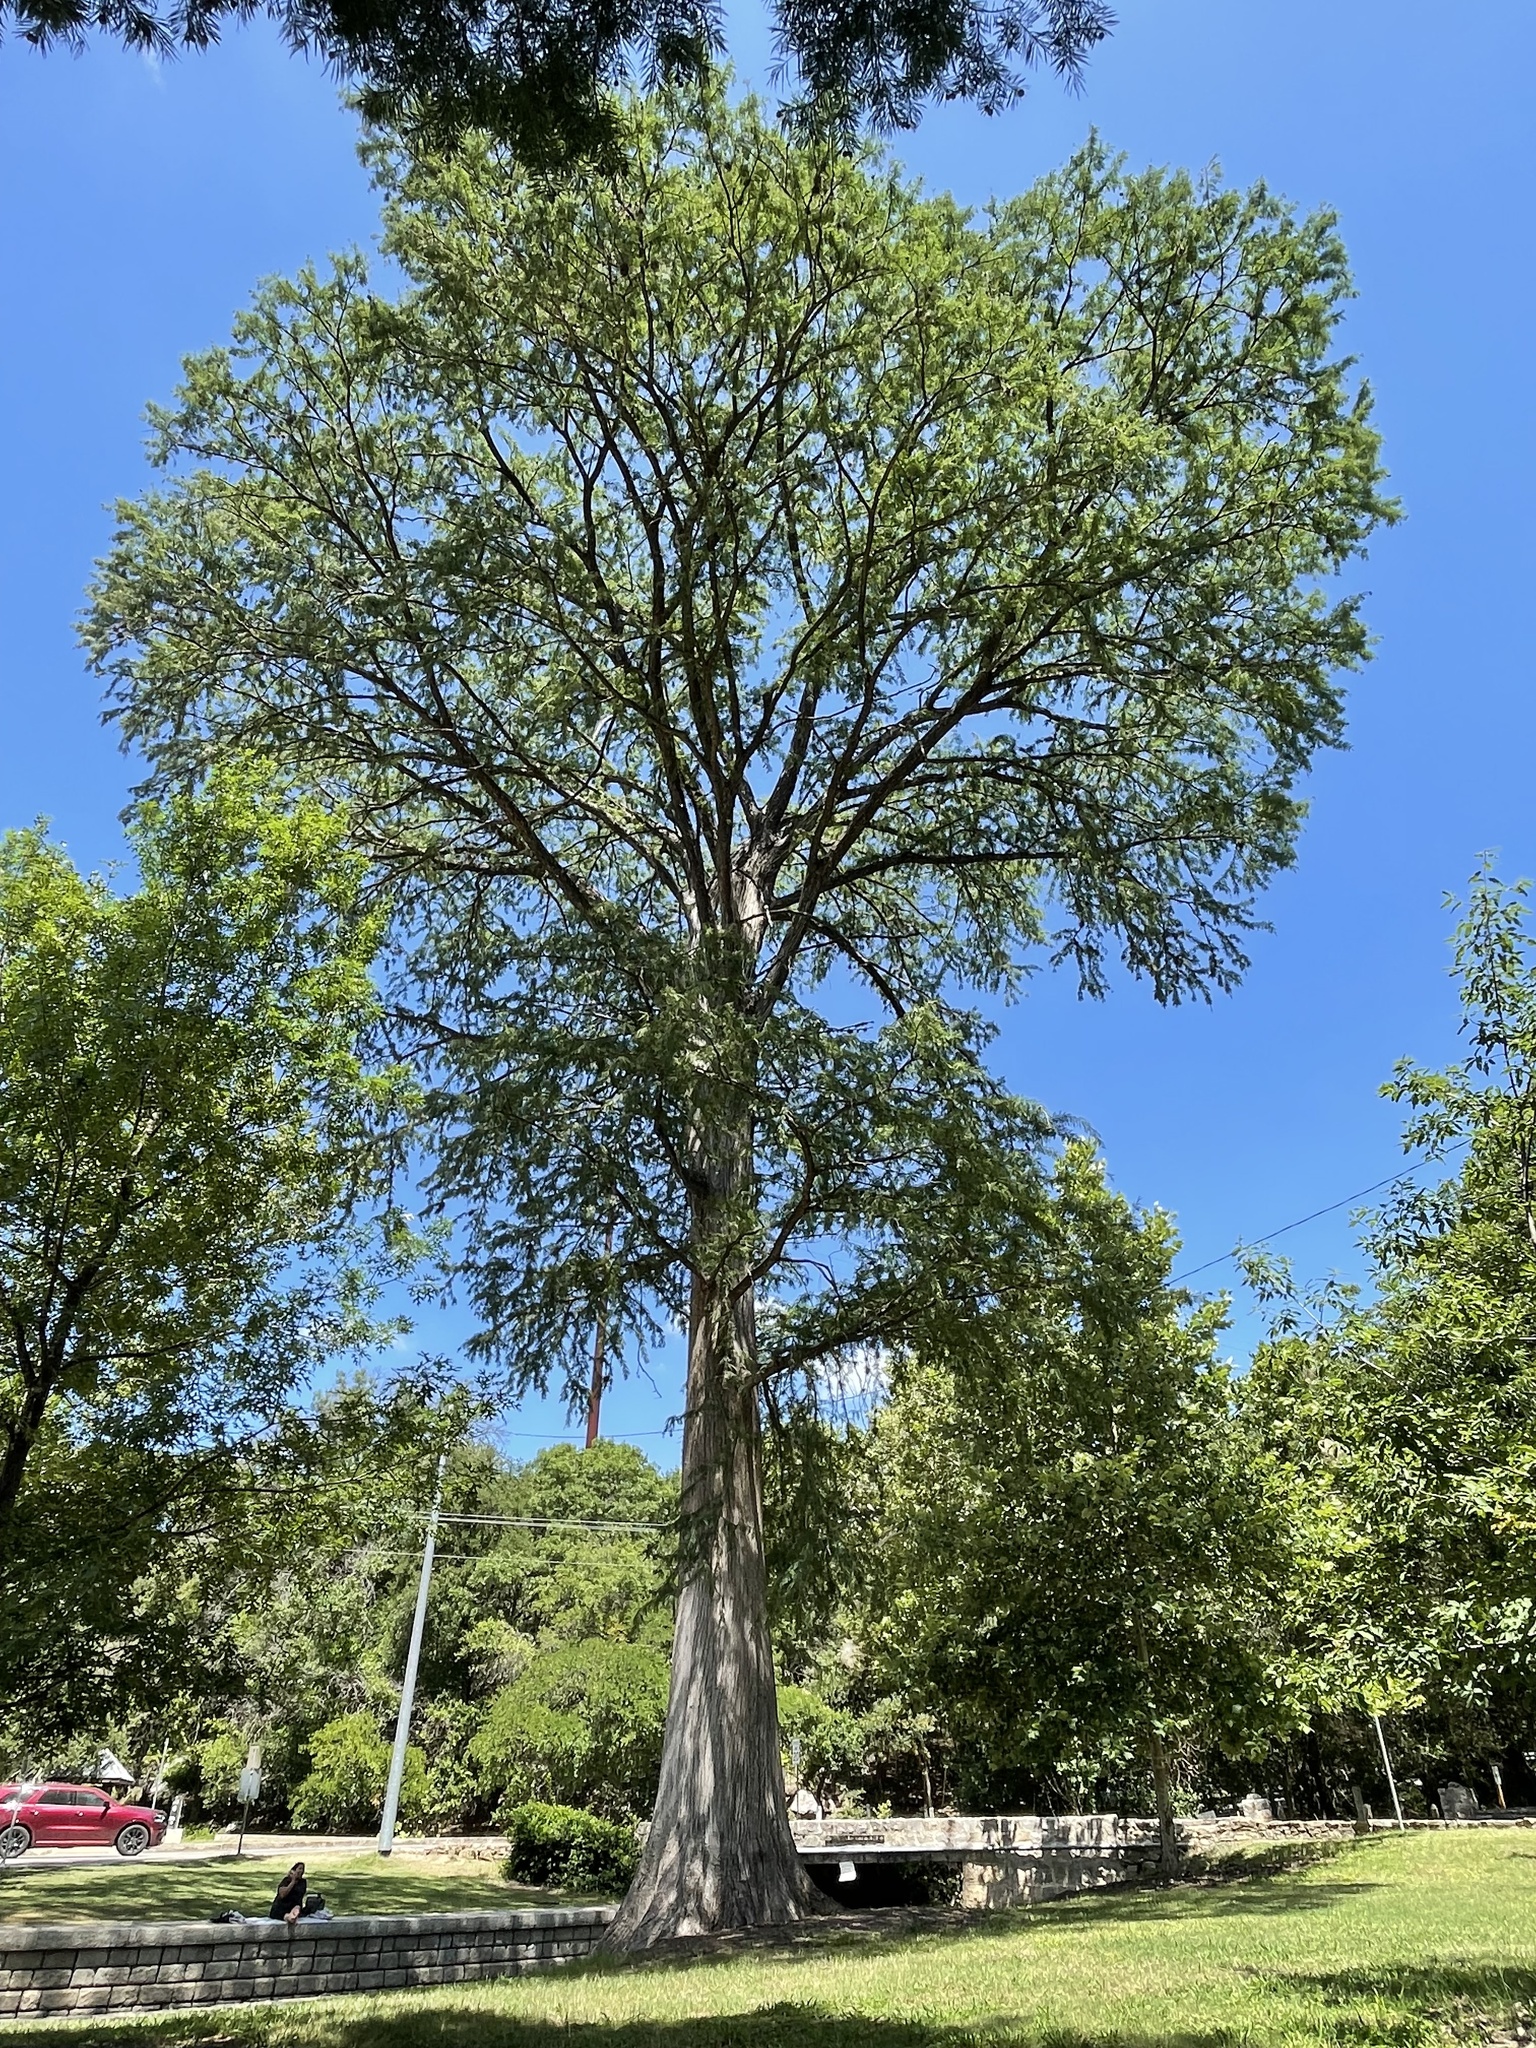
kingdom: Plantae
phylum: Tracheophyta
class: Pinopsida
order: Pinales
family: Cupressaceae
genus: Taxodium
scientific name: Taxodium distichum
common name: Bald cypress
